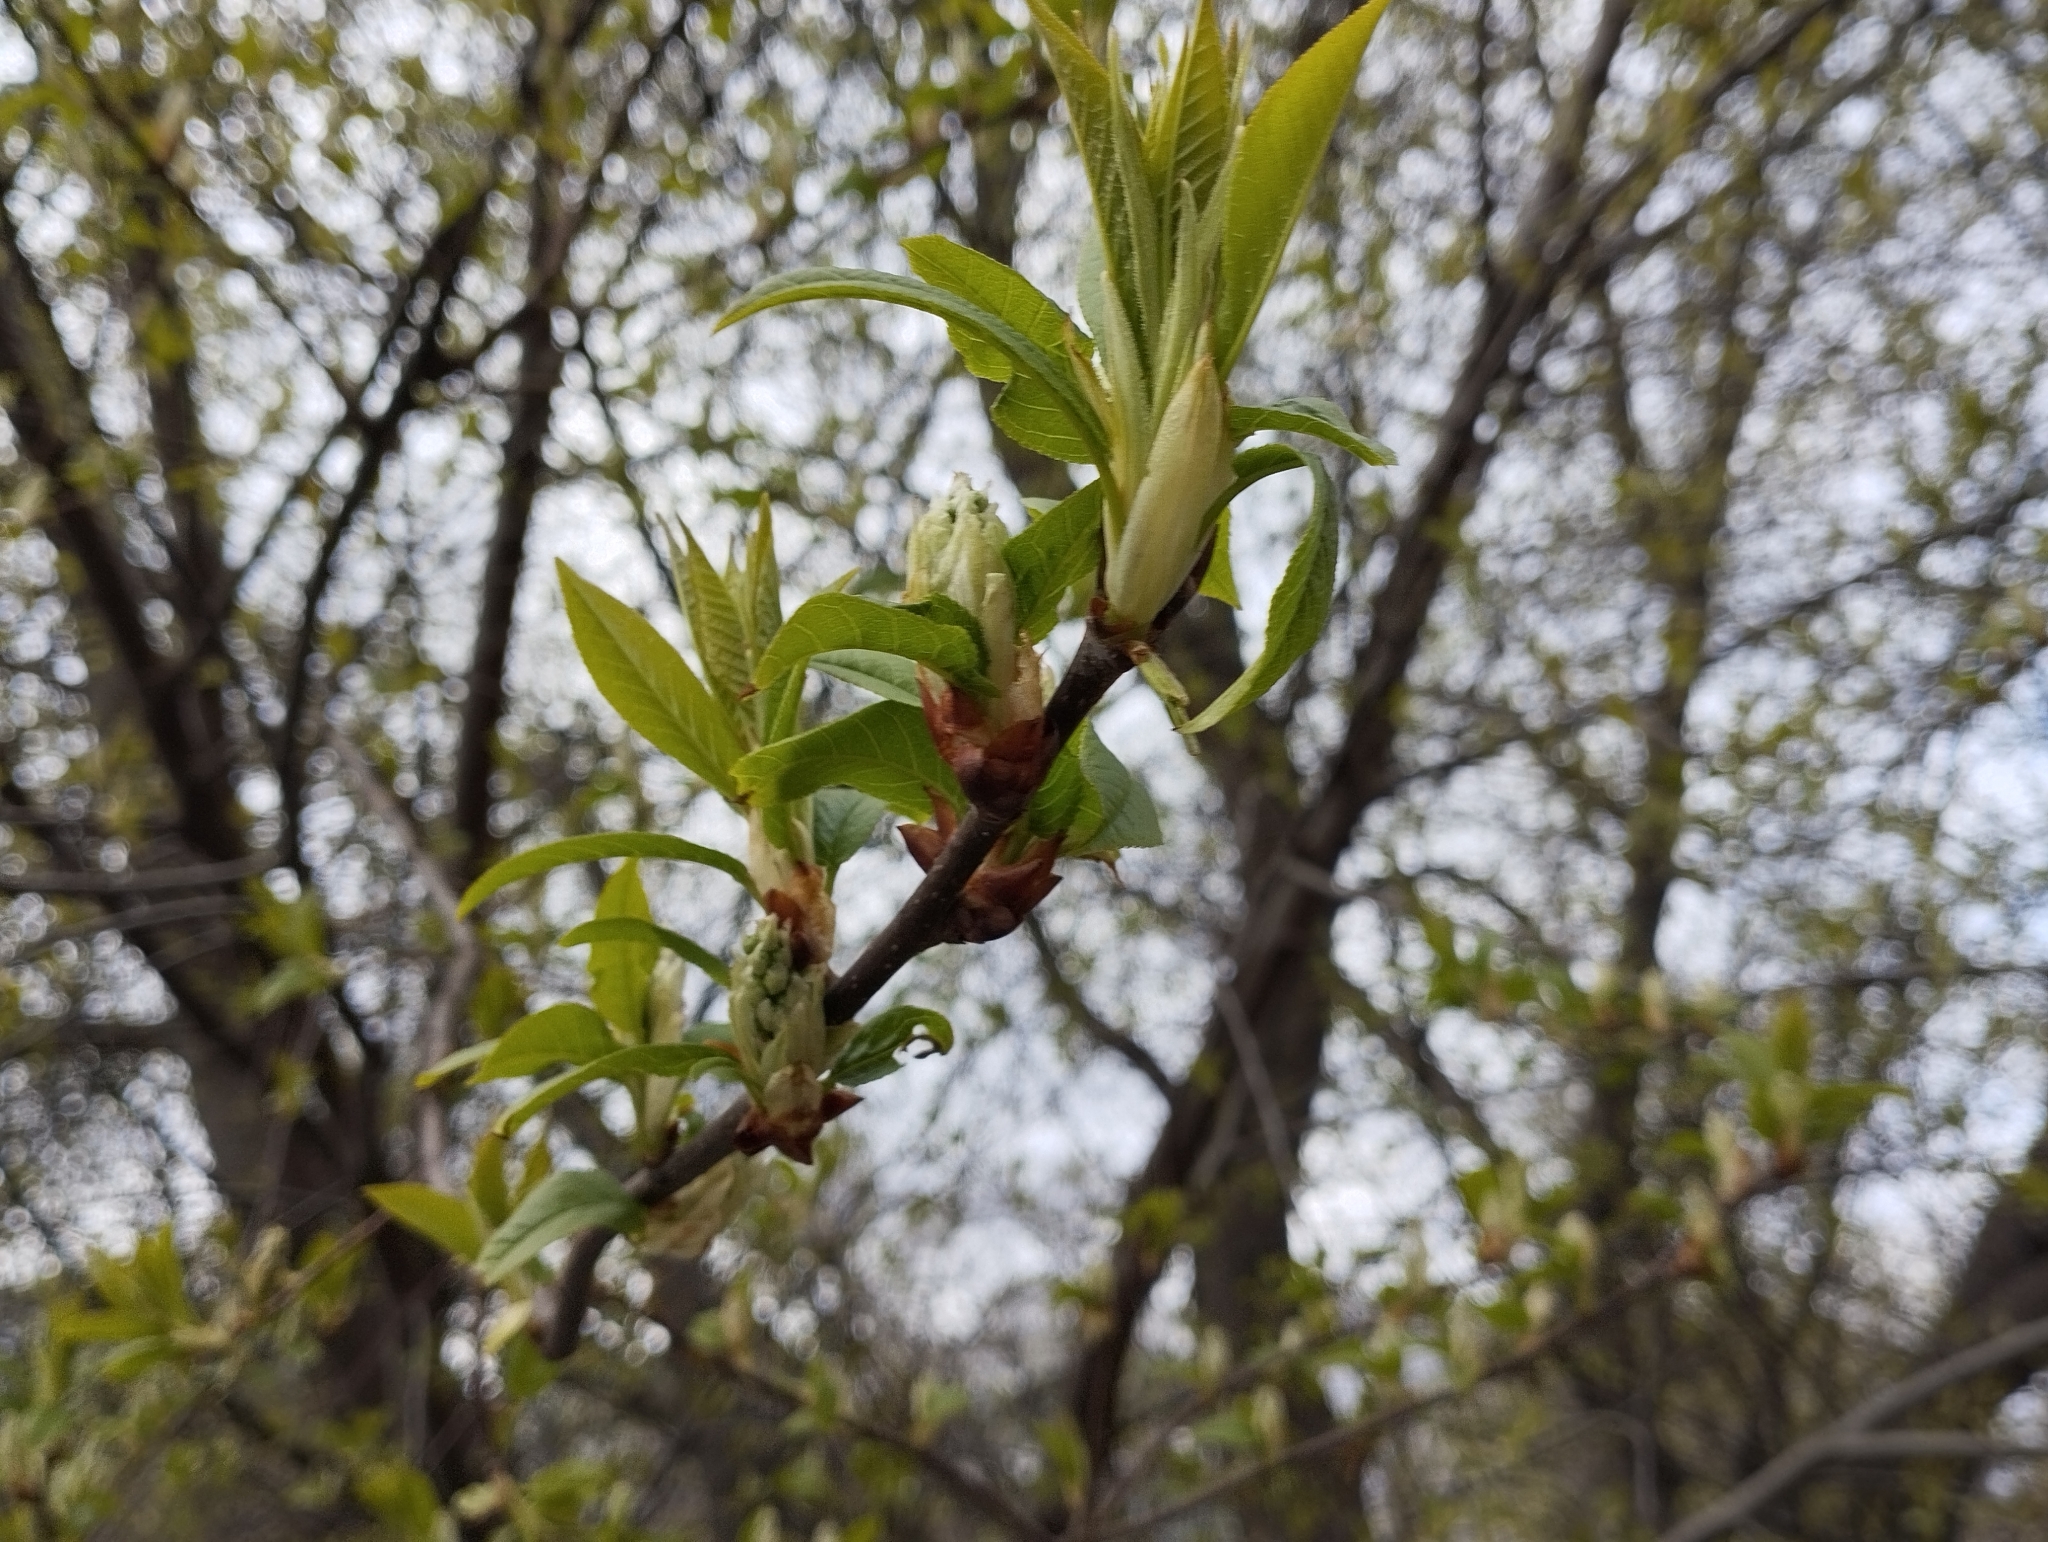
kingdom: Plantae
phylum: Tracheophyta
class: Magnoliopsida
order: Rosales
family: Rosaceae
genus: Prunus
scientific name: Prunus padus
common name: Bird cherry
